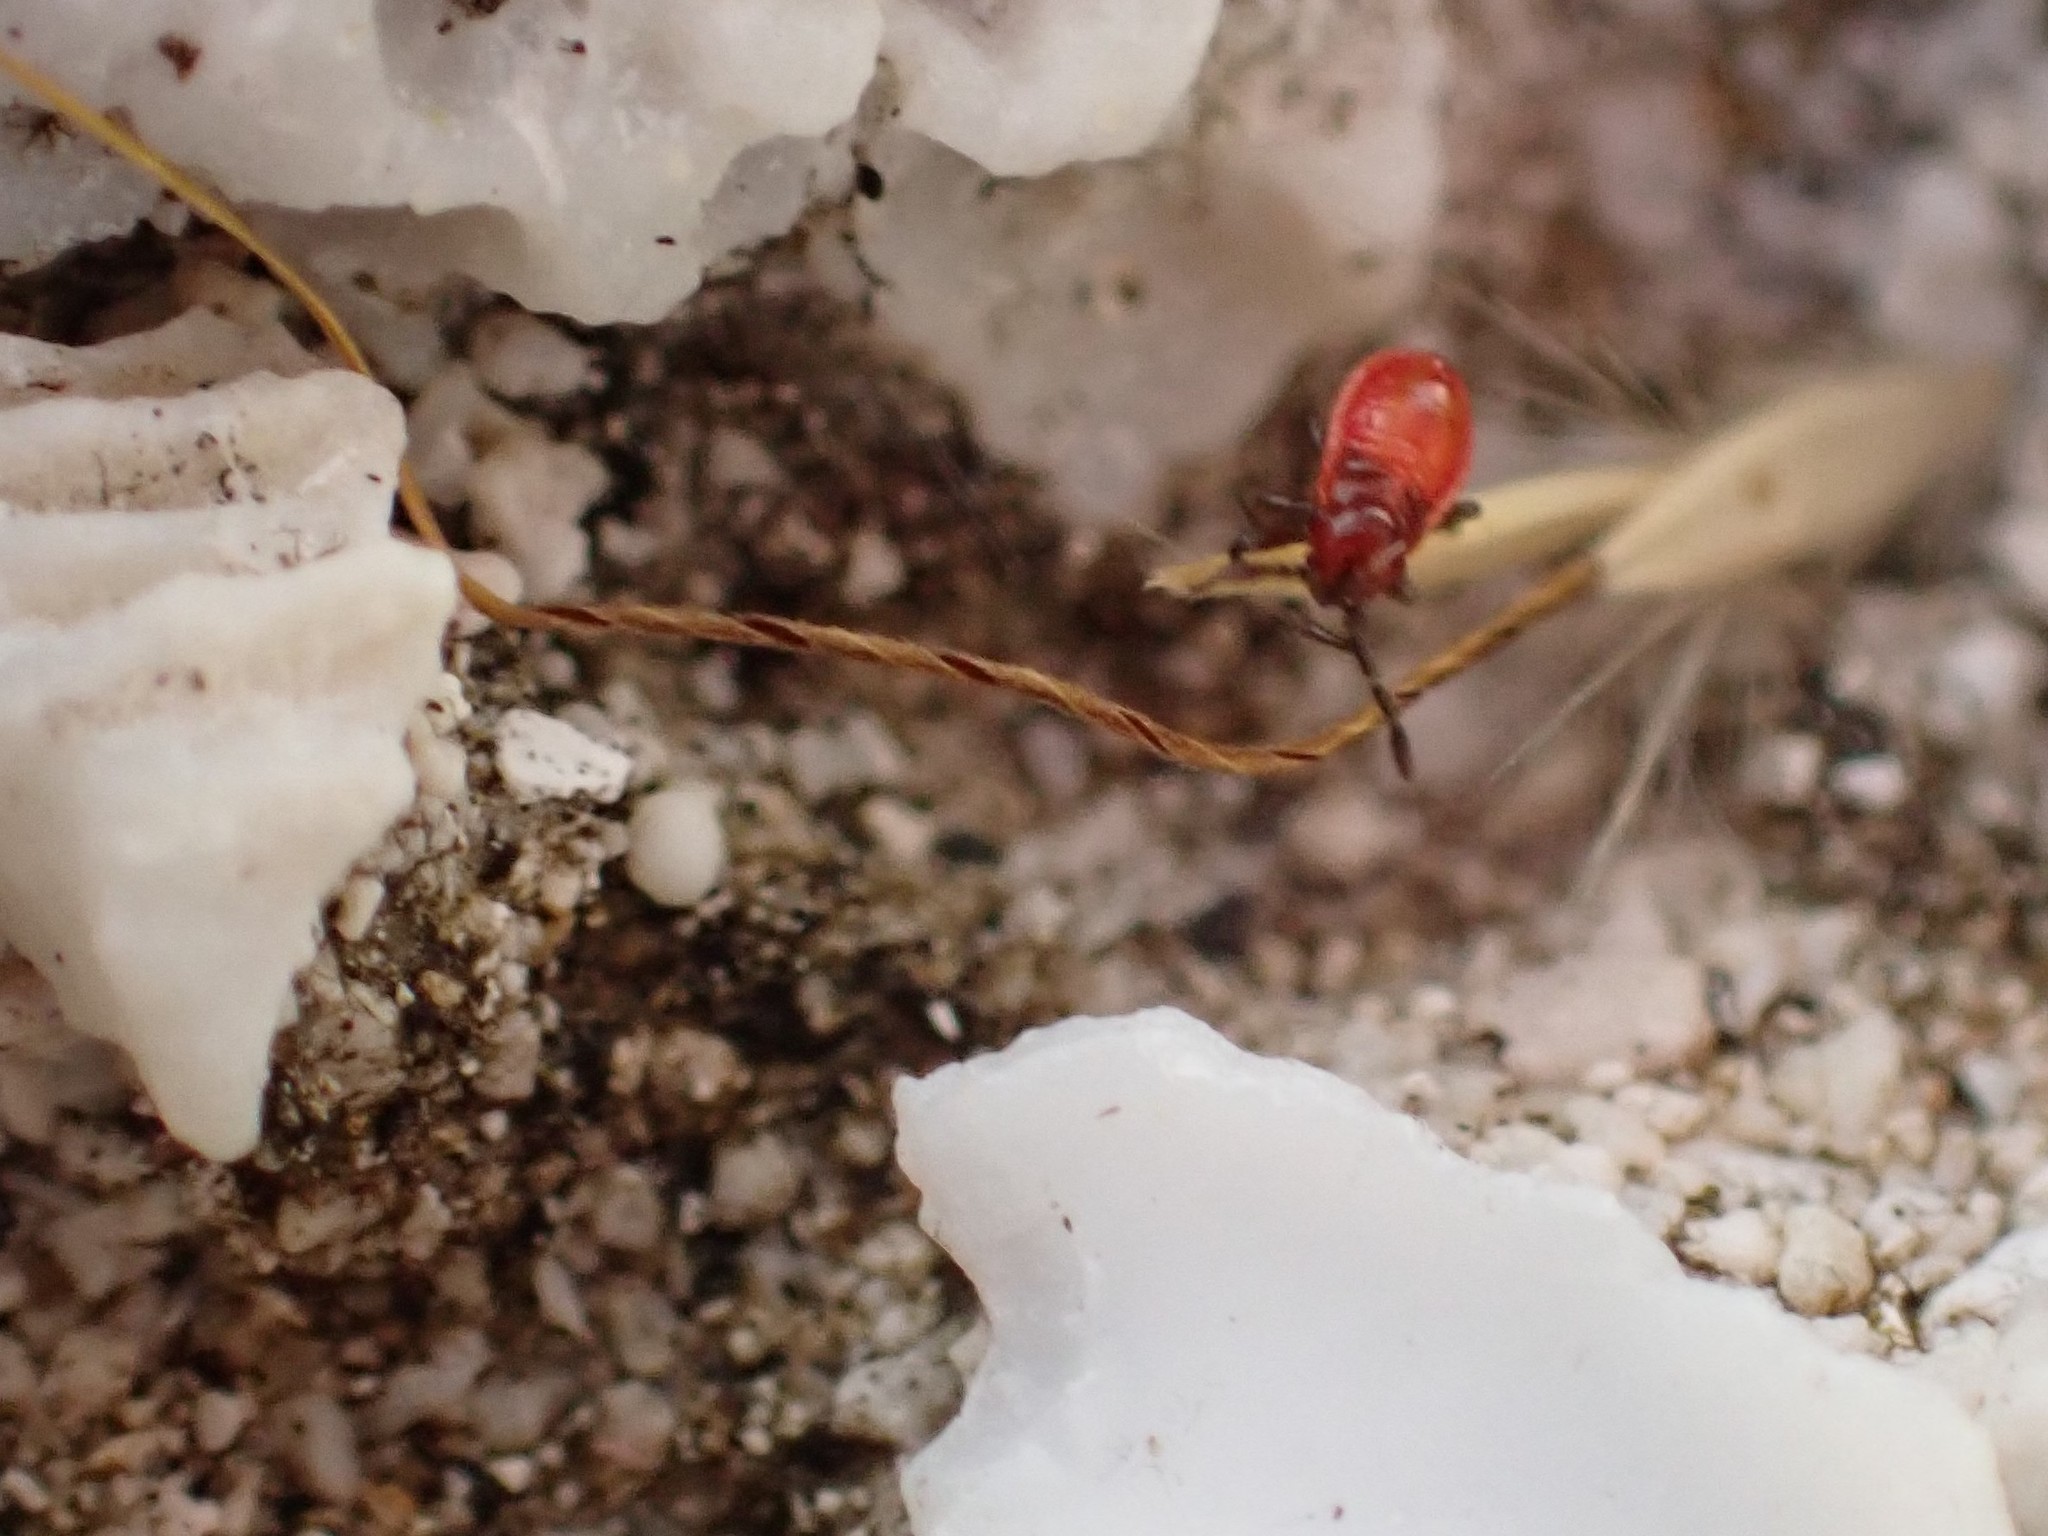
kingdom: Animalia
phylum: Arthropoda
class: Insecta
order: Hemiptera
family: Lygaeidae
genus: Spilostethus
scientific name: Spilostethus pandurus
